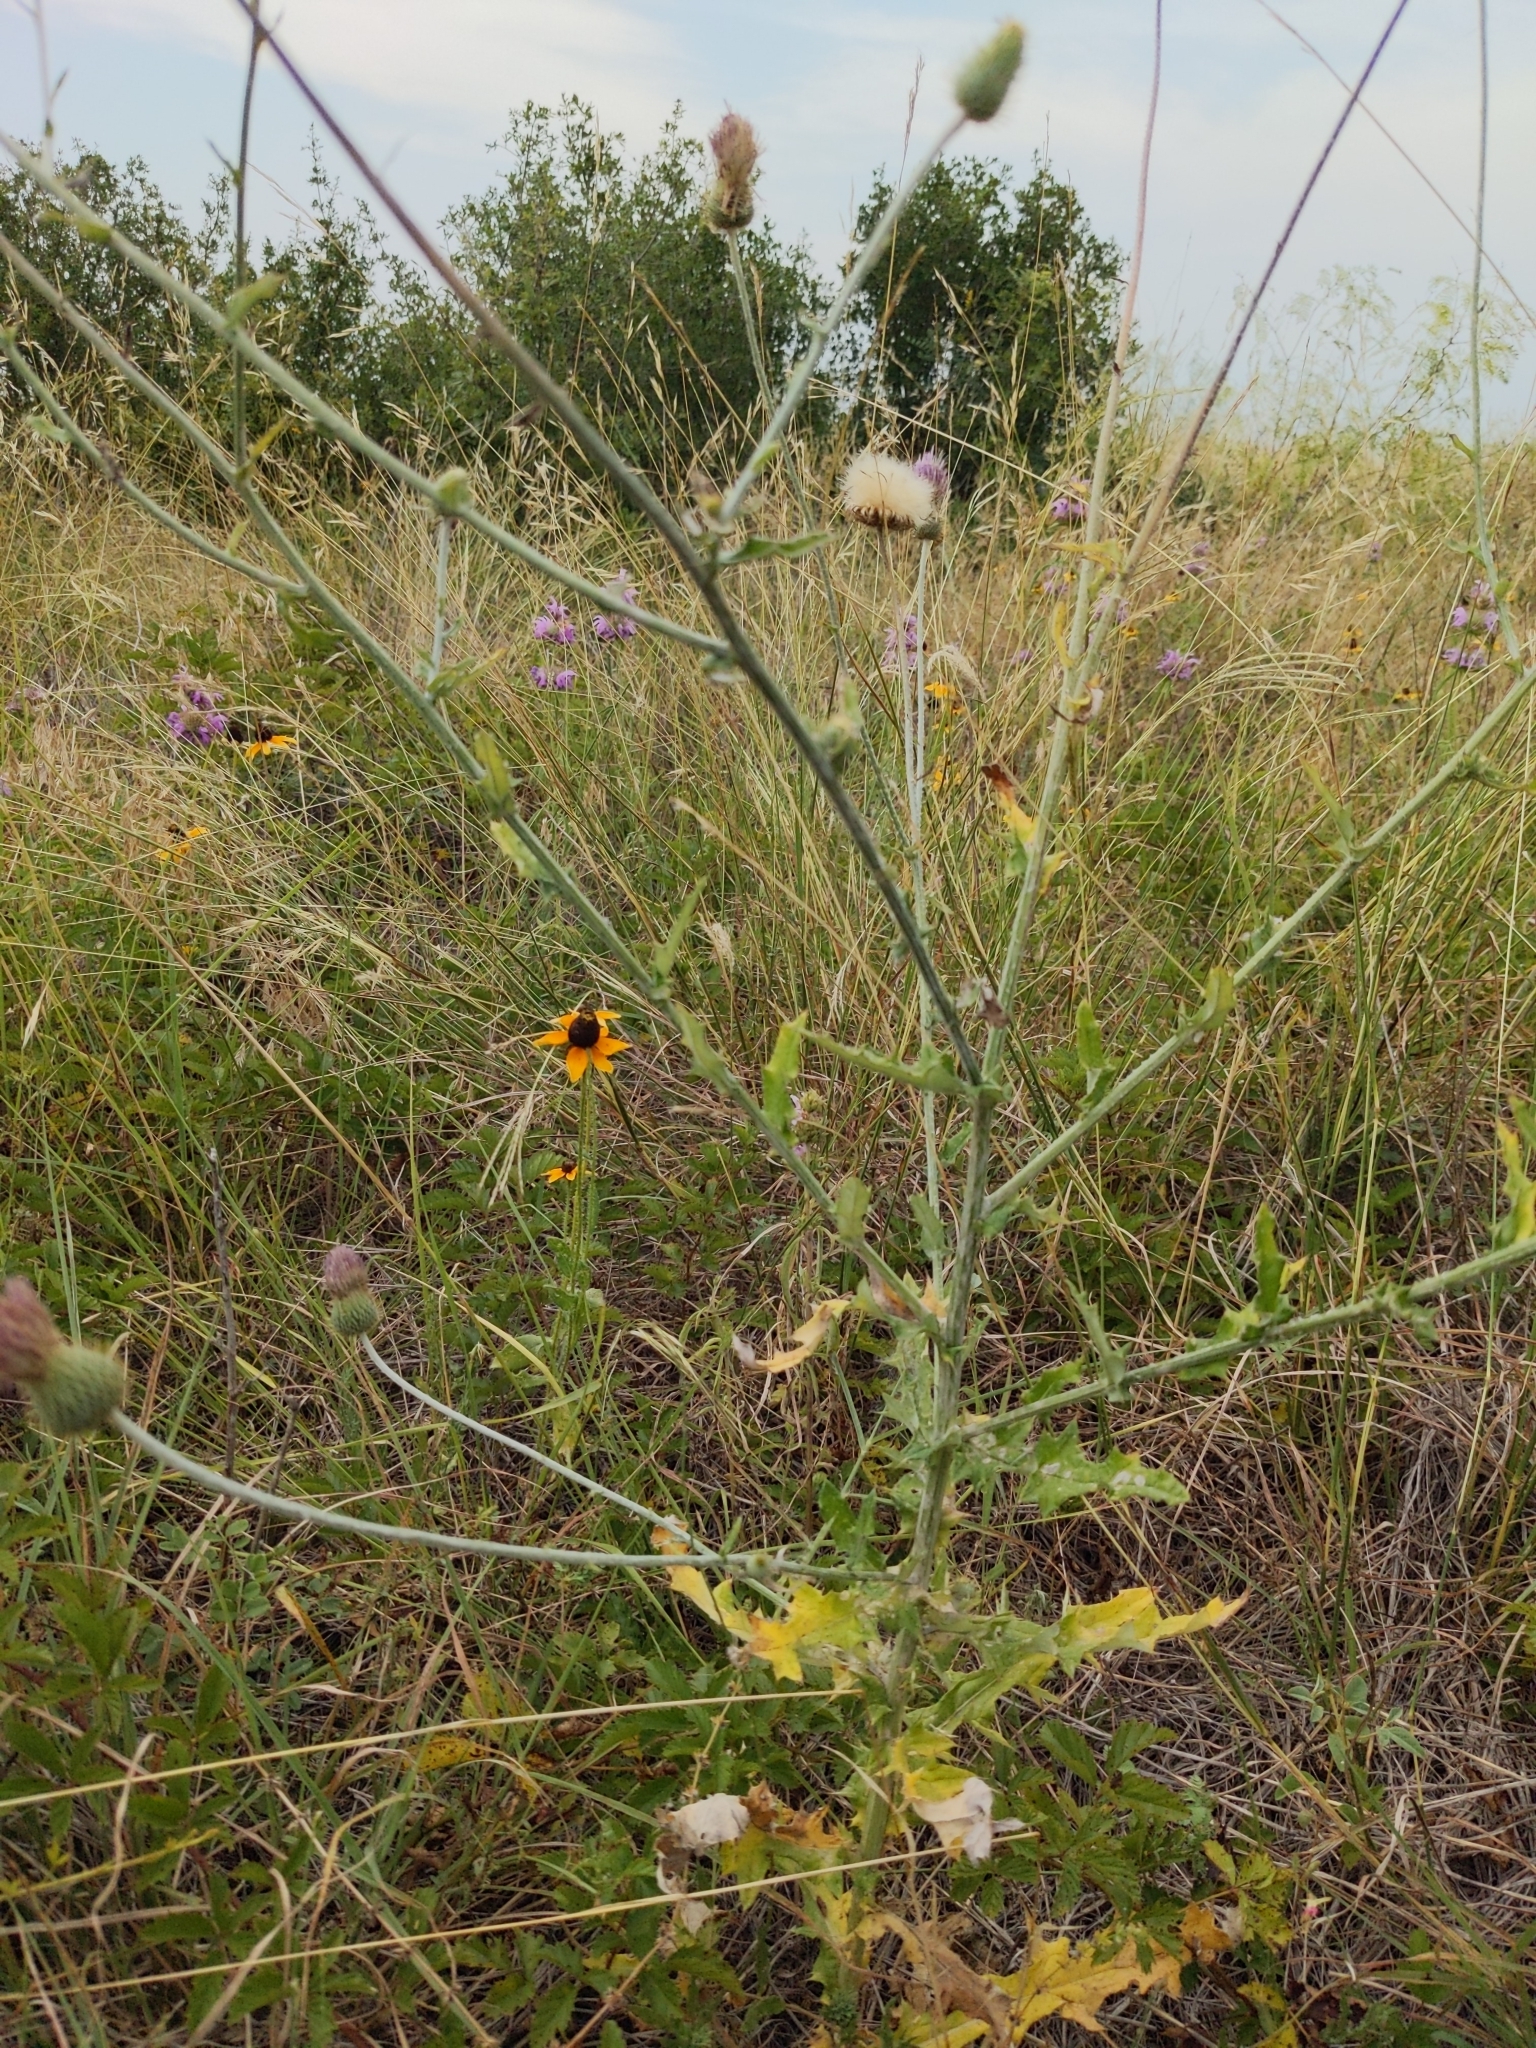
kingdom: Plantae
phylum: Tracheophyta
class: Magnoliopsida
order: Asterales
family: Asteraceae
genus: Cirsium
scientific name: Cirsium texanum
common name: Texas purple thistle
